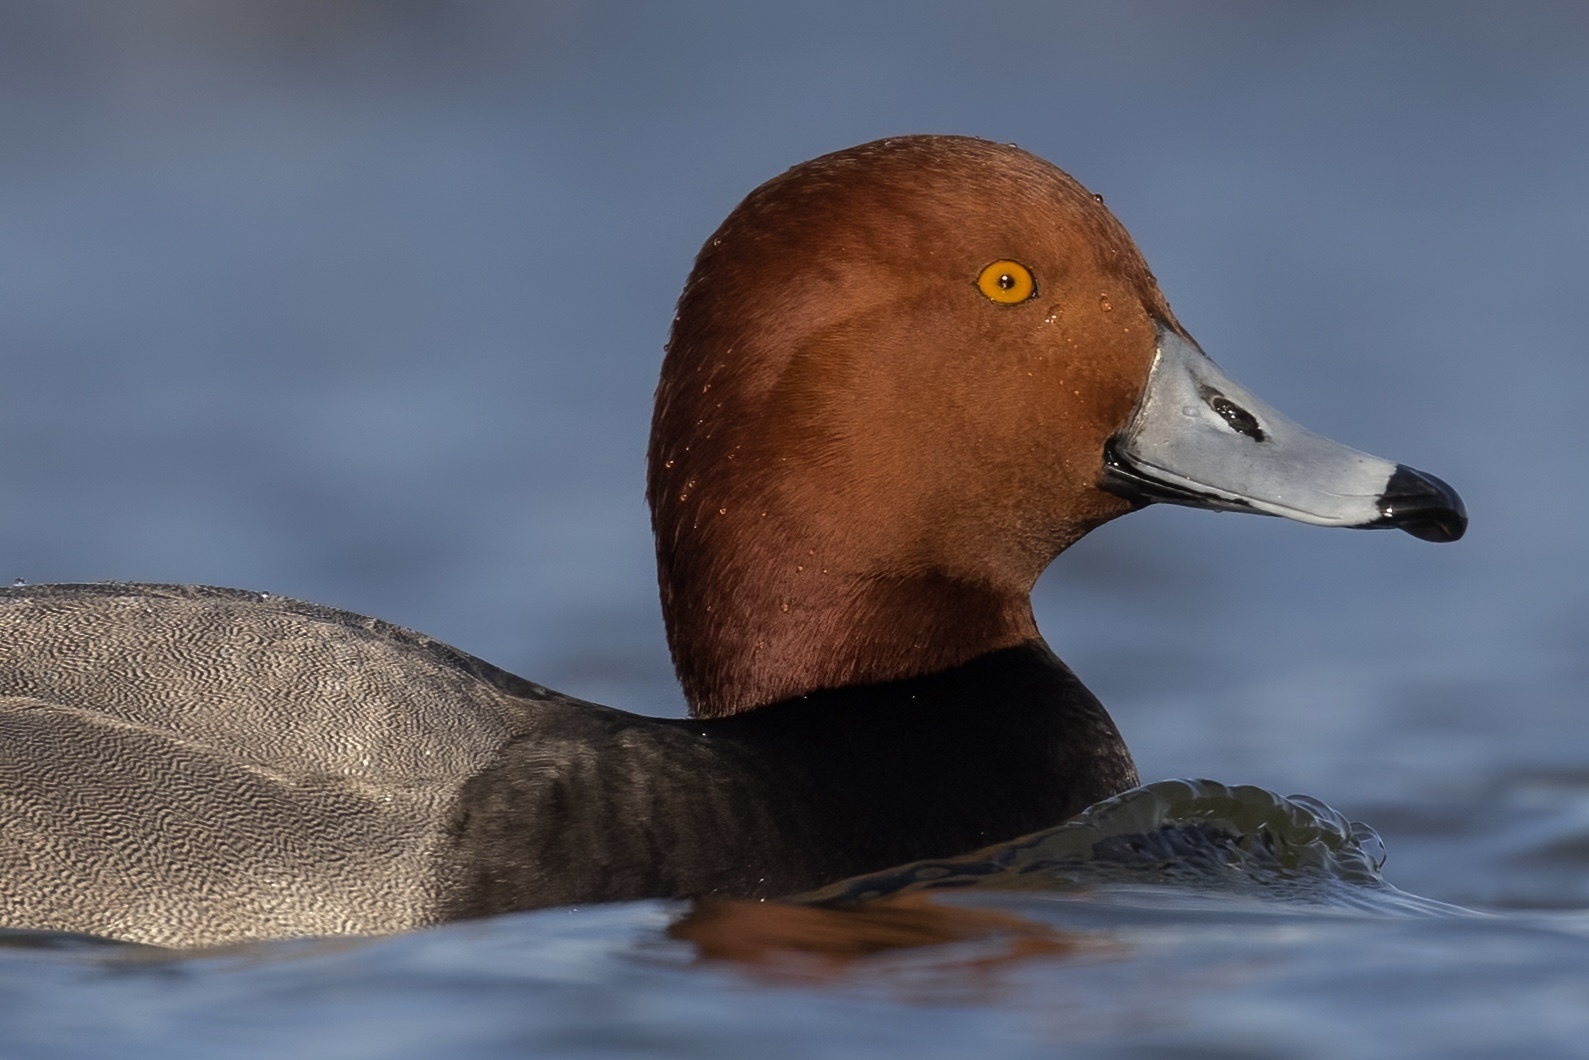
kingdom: Animalia
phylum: Chordata
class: Aves
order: Anseriformes
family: Anatidae
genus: Aythya
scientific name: Aythya americana
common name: Redhead
